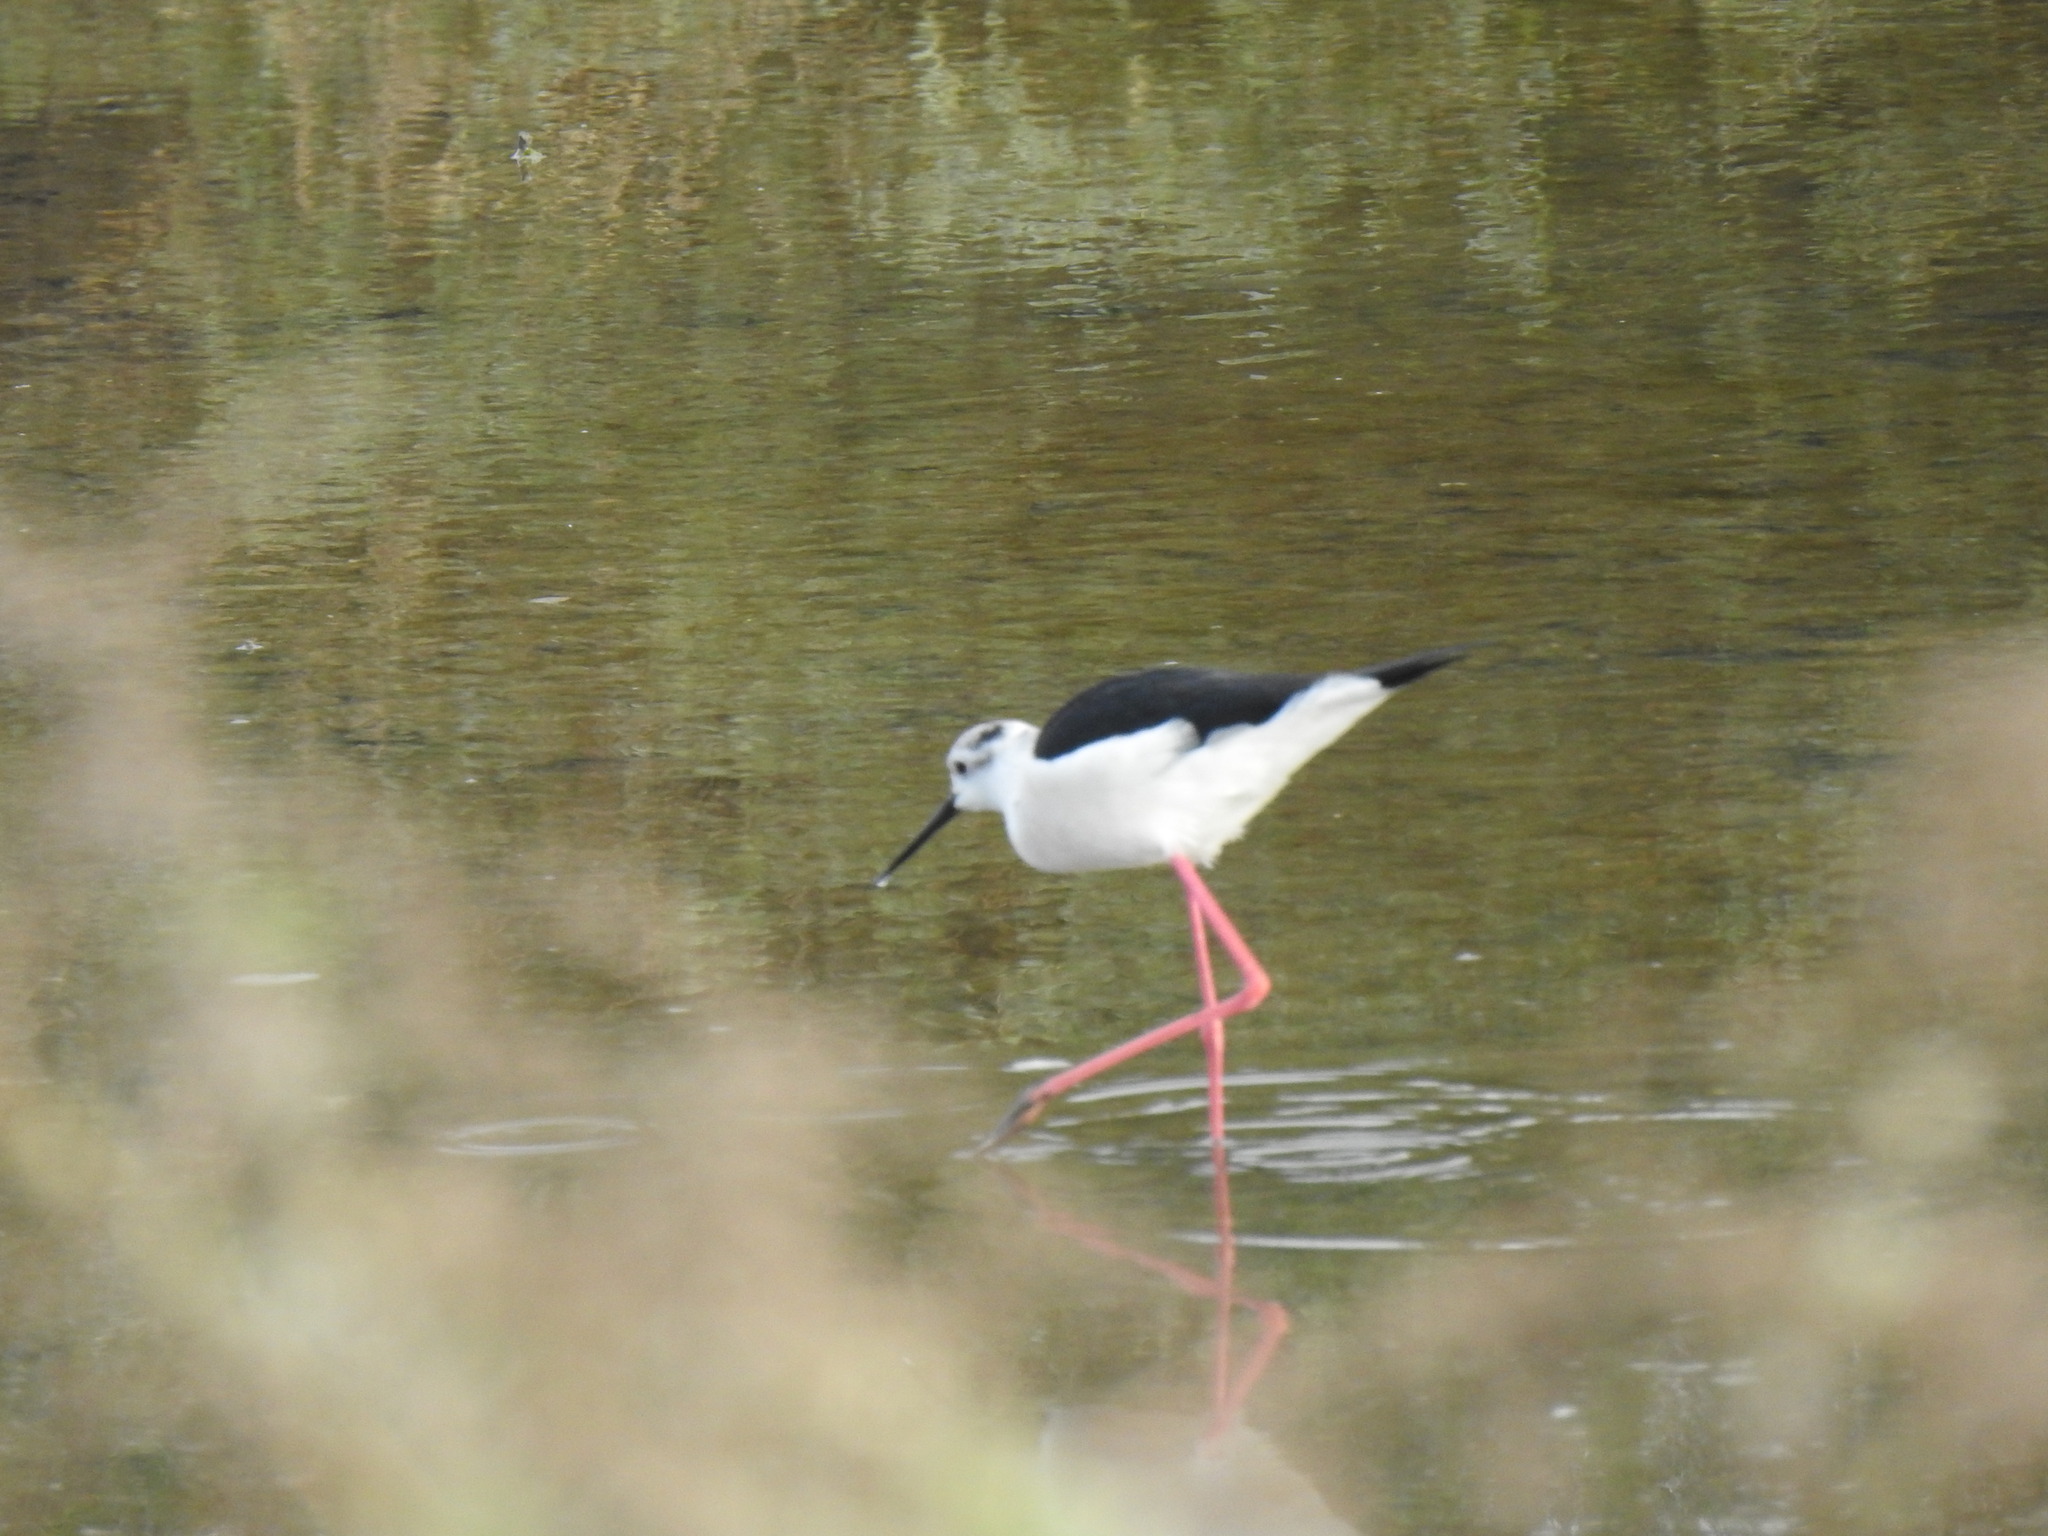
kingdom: Animalia
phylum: Chordata
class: Aves
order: Charadriiformes
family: Recurvirostridae
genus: Himantopus
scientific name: Himantopus himantopus
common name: Black-winged stilt
